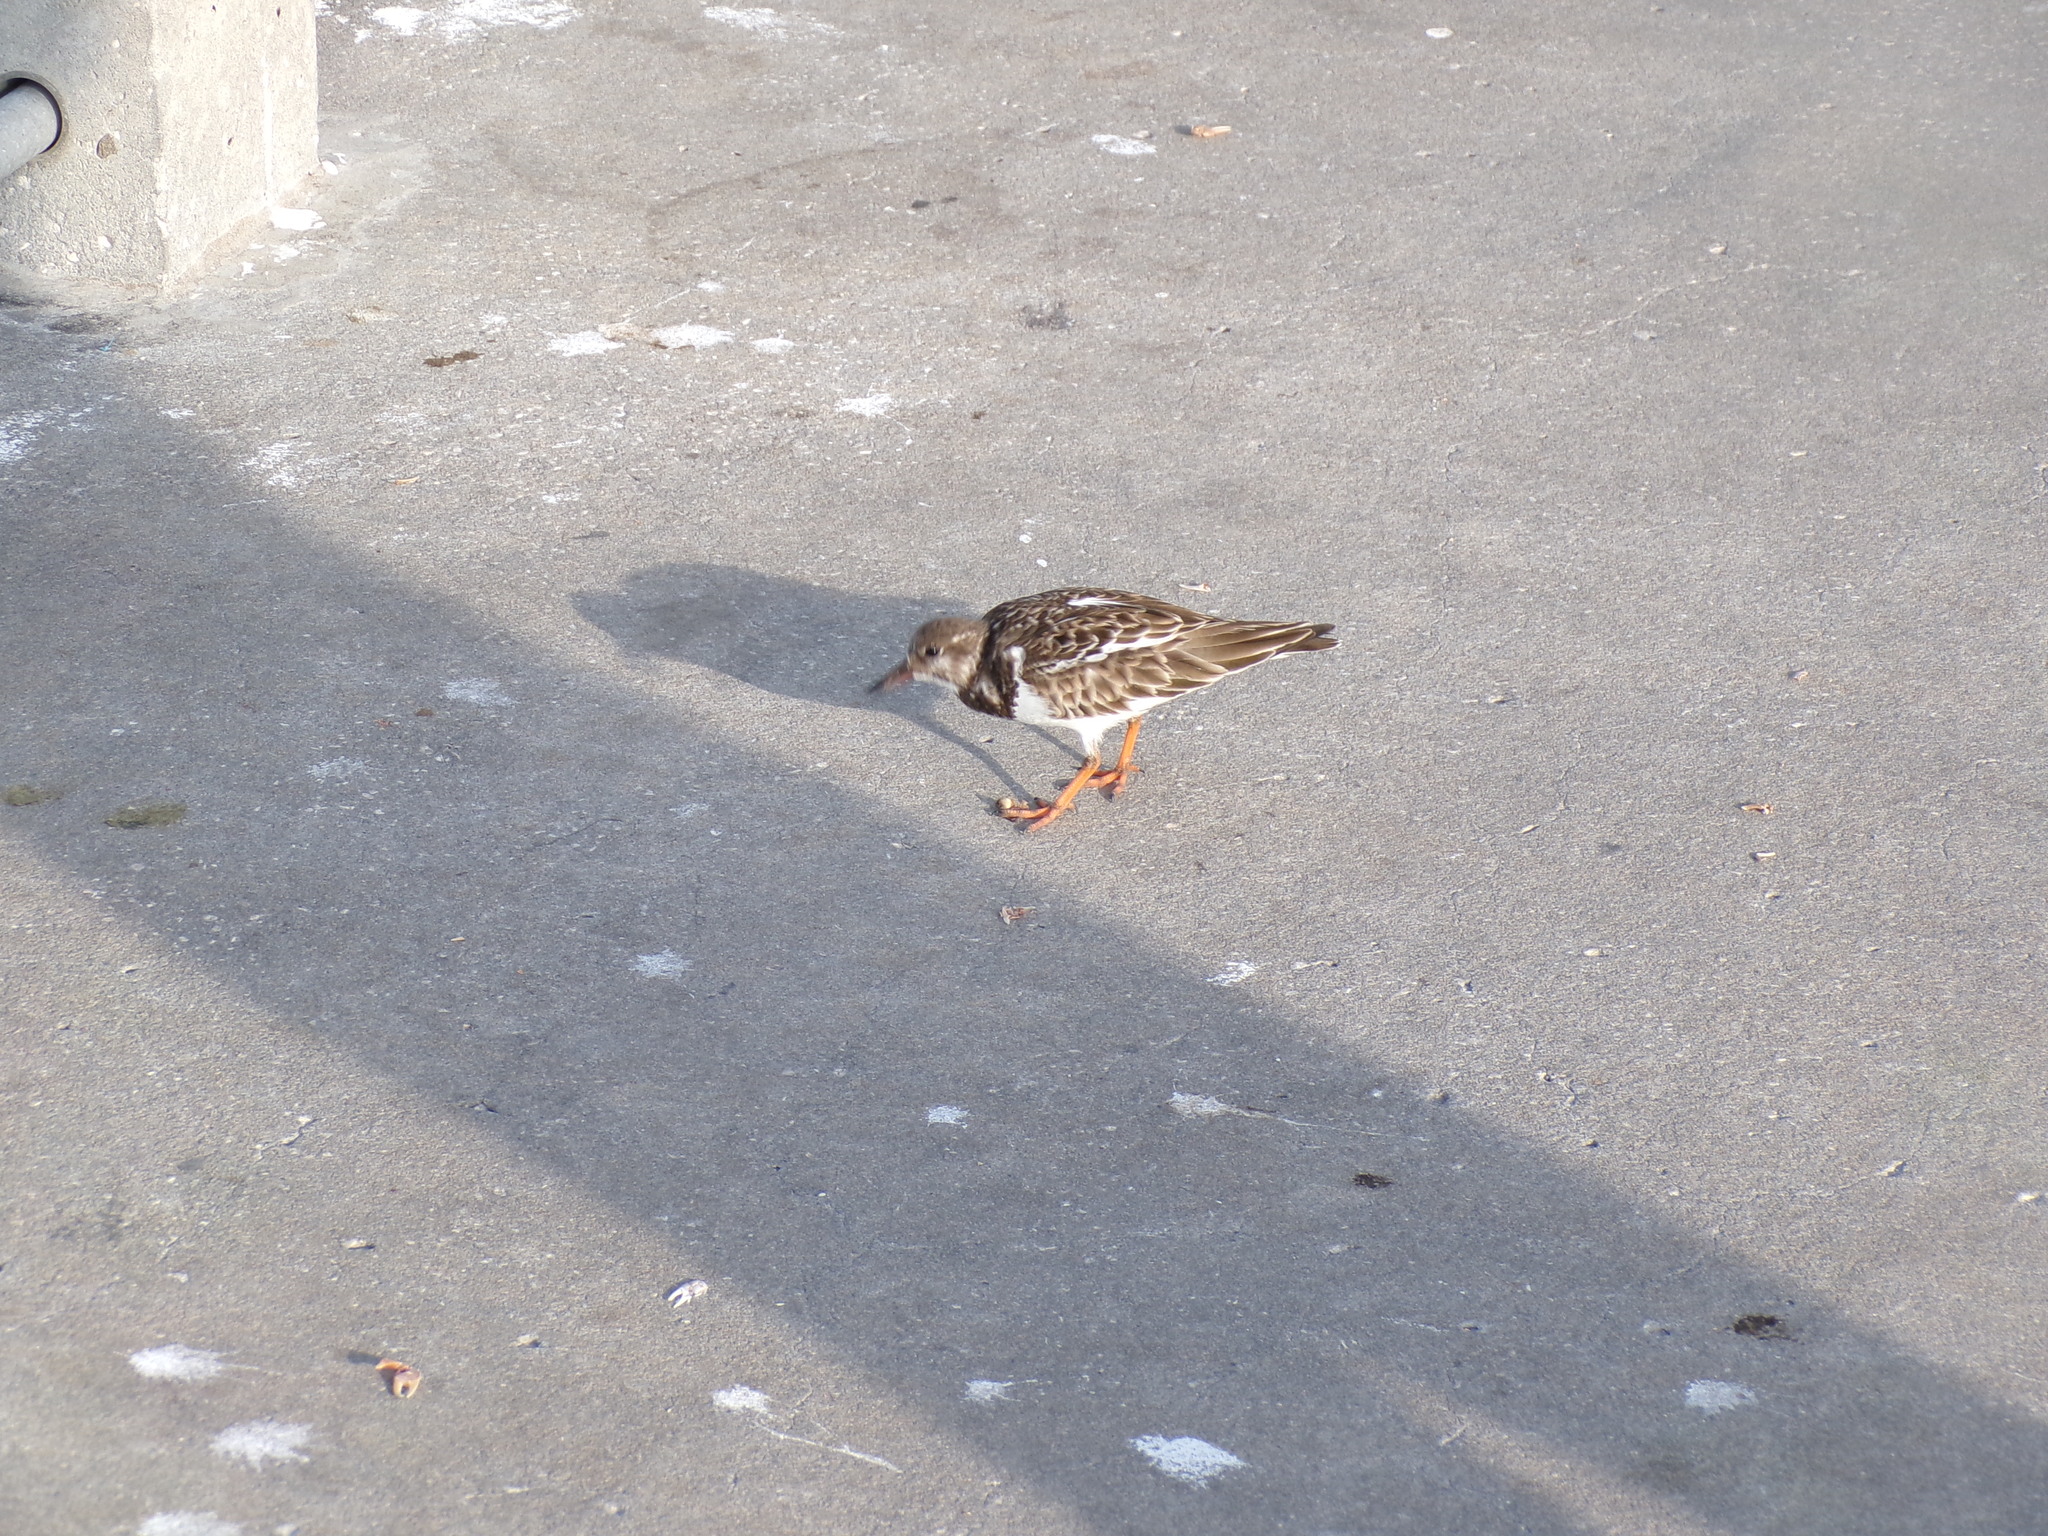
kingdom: Animalia
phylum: Chordata
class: Aves
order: Charadriiformes
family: Scolopacidae
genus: Arenaria
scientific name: Arenaria interpres
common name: Ruddy turnstone
